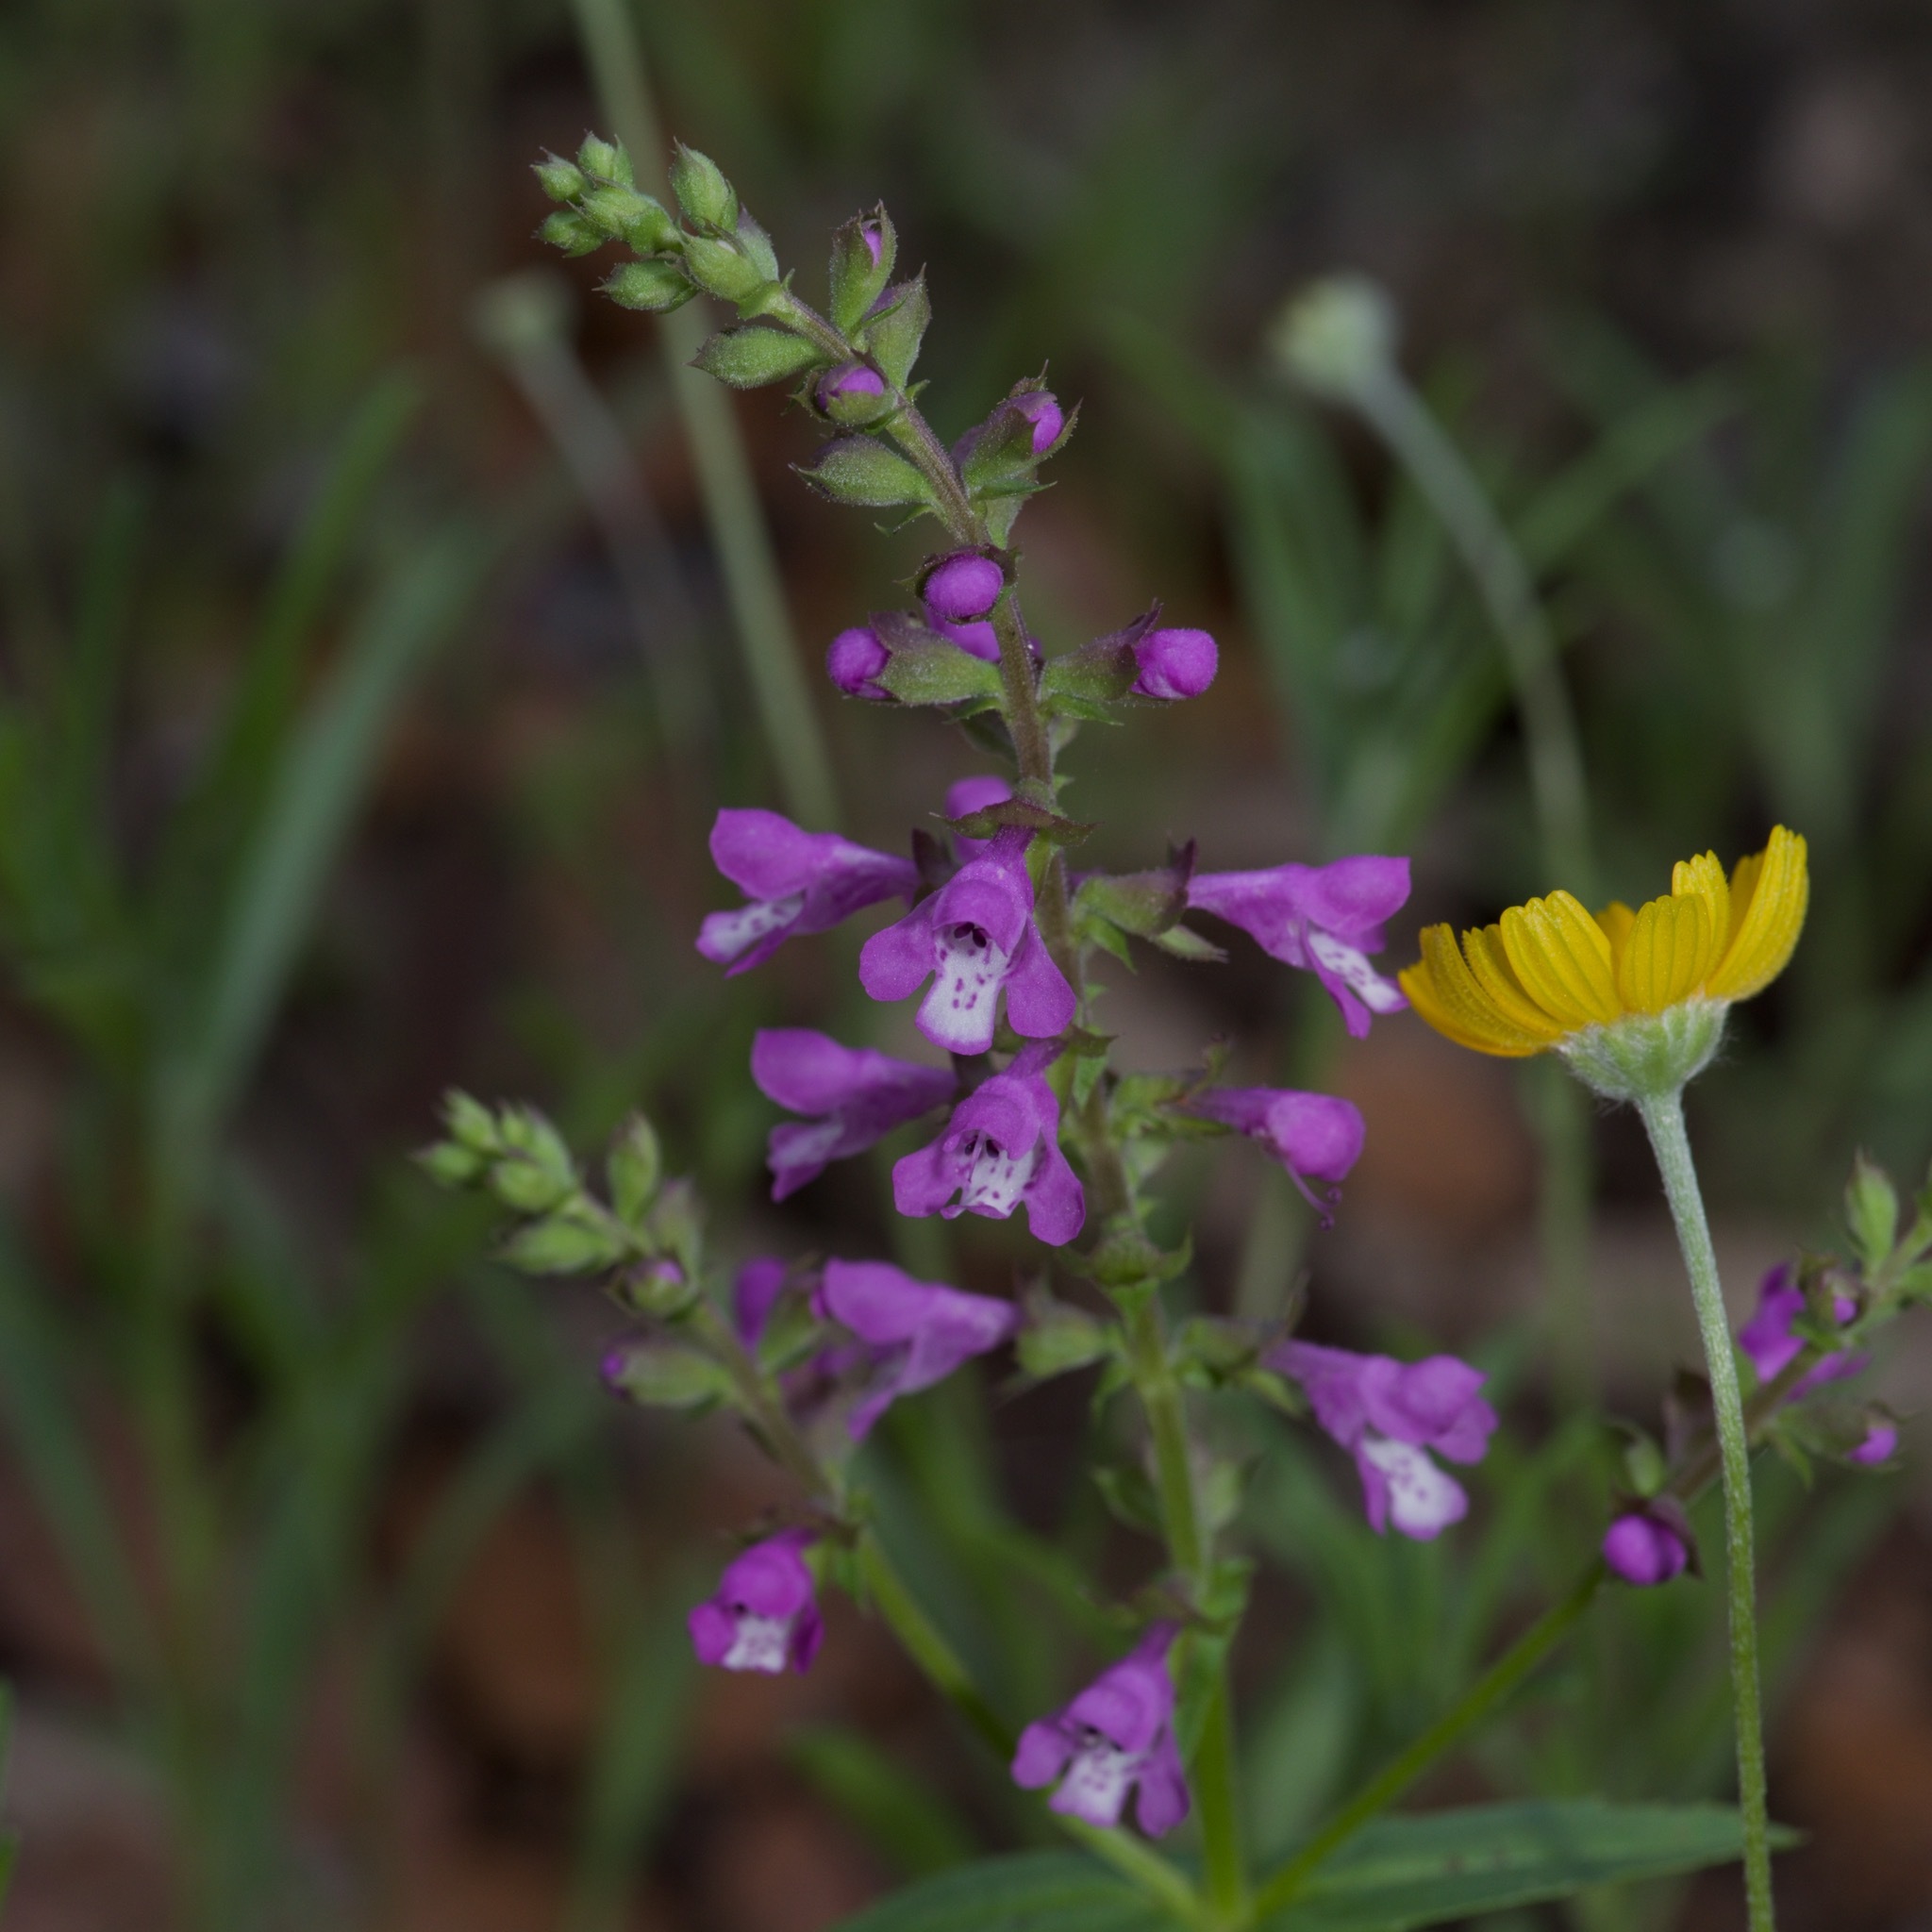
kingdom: Plantae
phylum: Tracheophyta
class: Magnoliopsida
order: Lamiales
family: Lamiaceae
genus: Warnockia
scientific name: Warnockia scutellarioides
